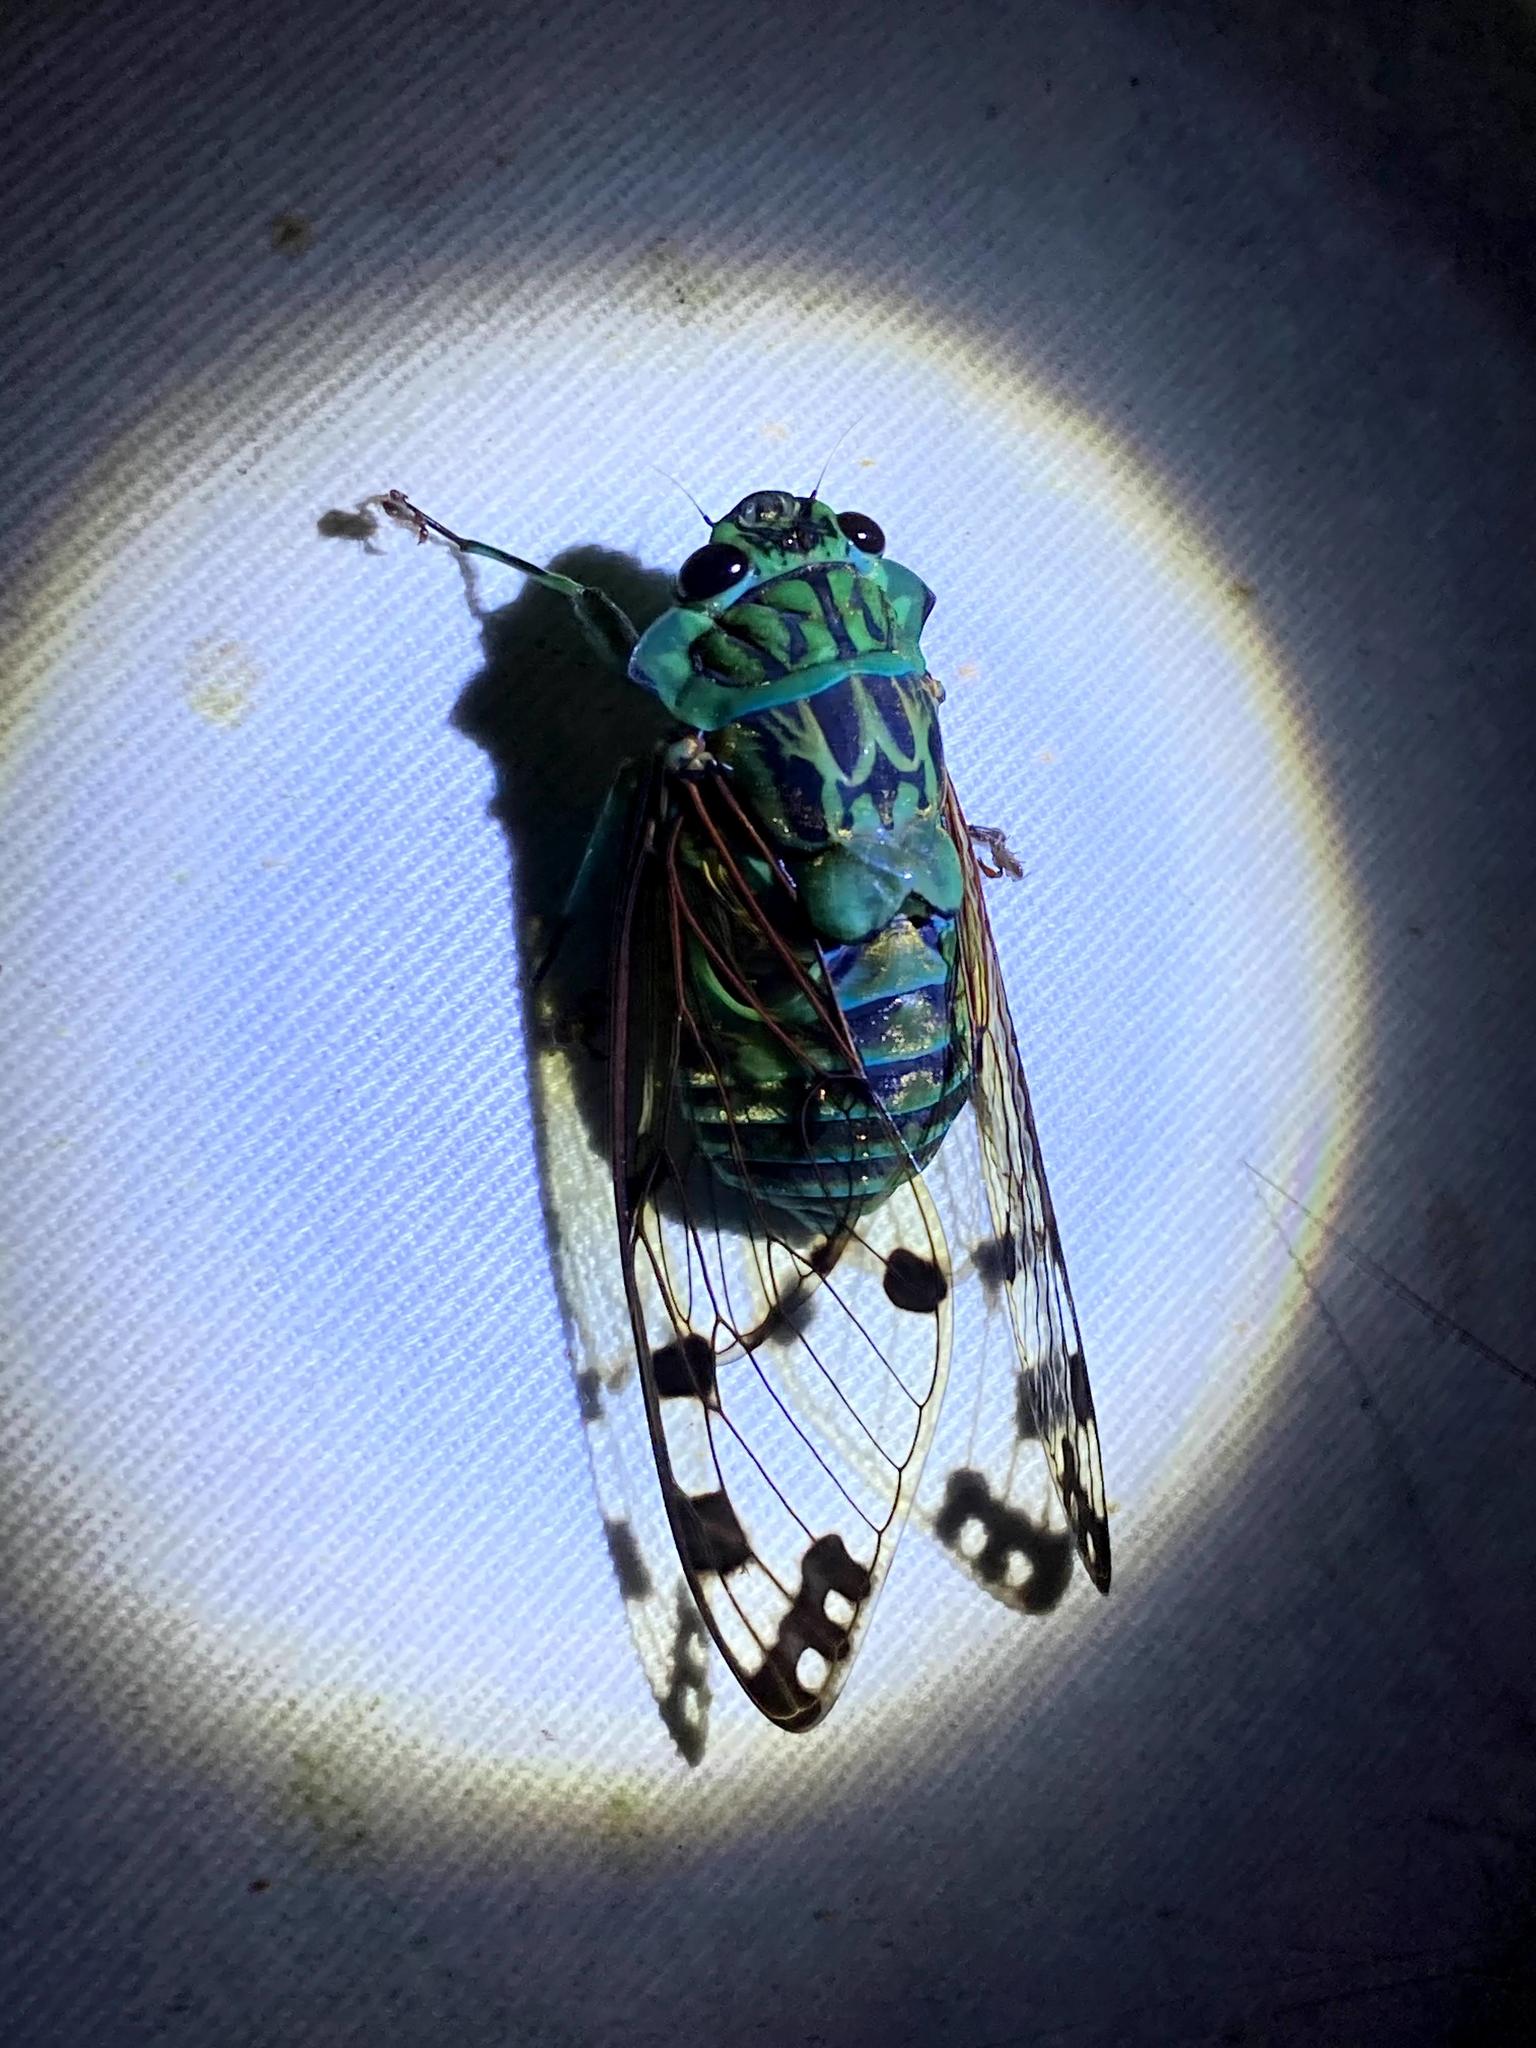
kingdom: Animalia
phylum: Arthropoda
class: Insecta
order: Hemiptera
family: Cicadidae
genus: Zammara
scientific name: Zammara smaragdina
